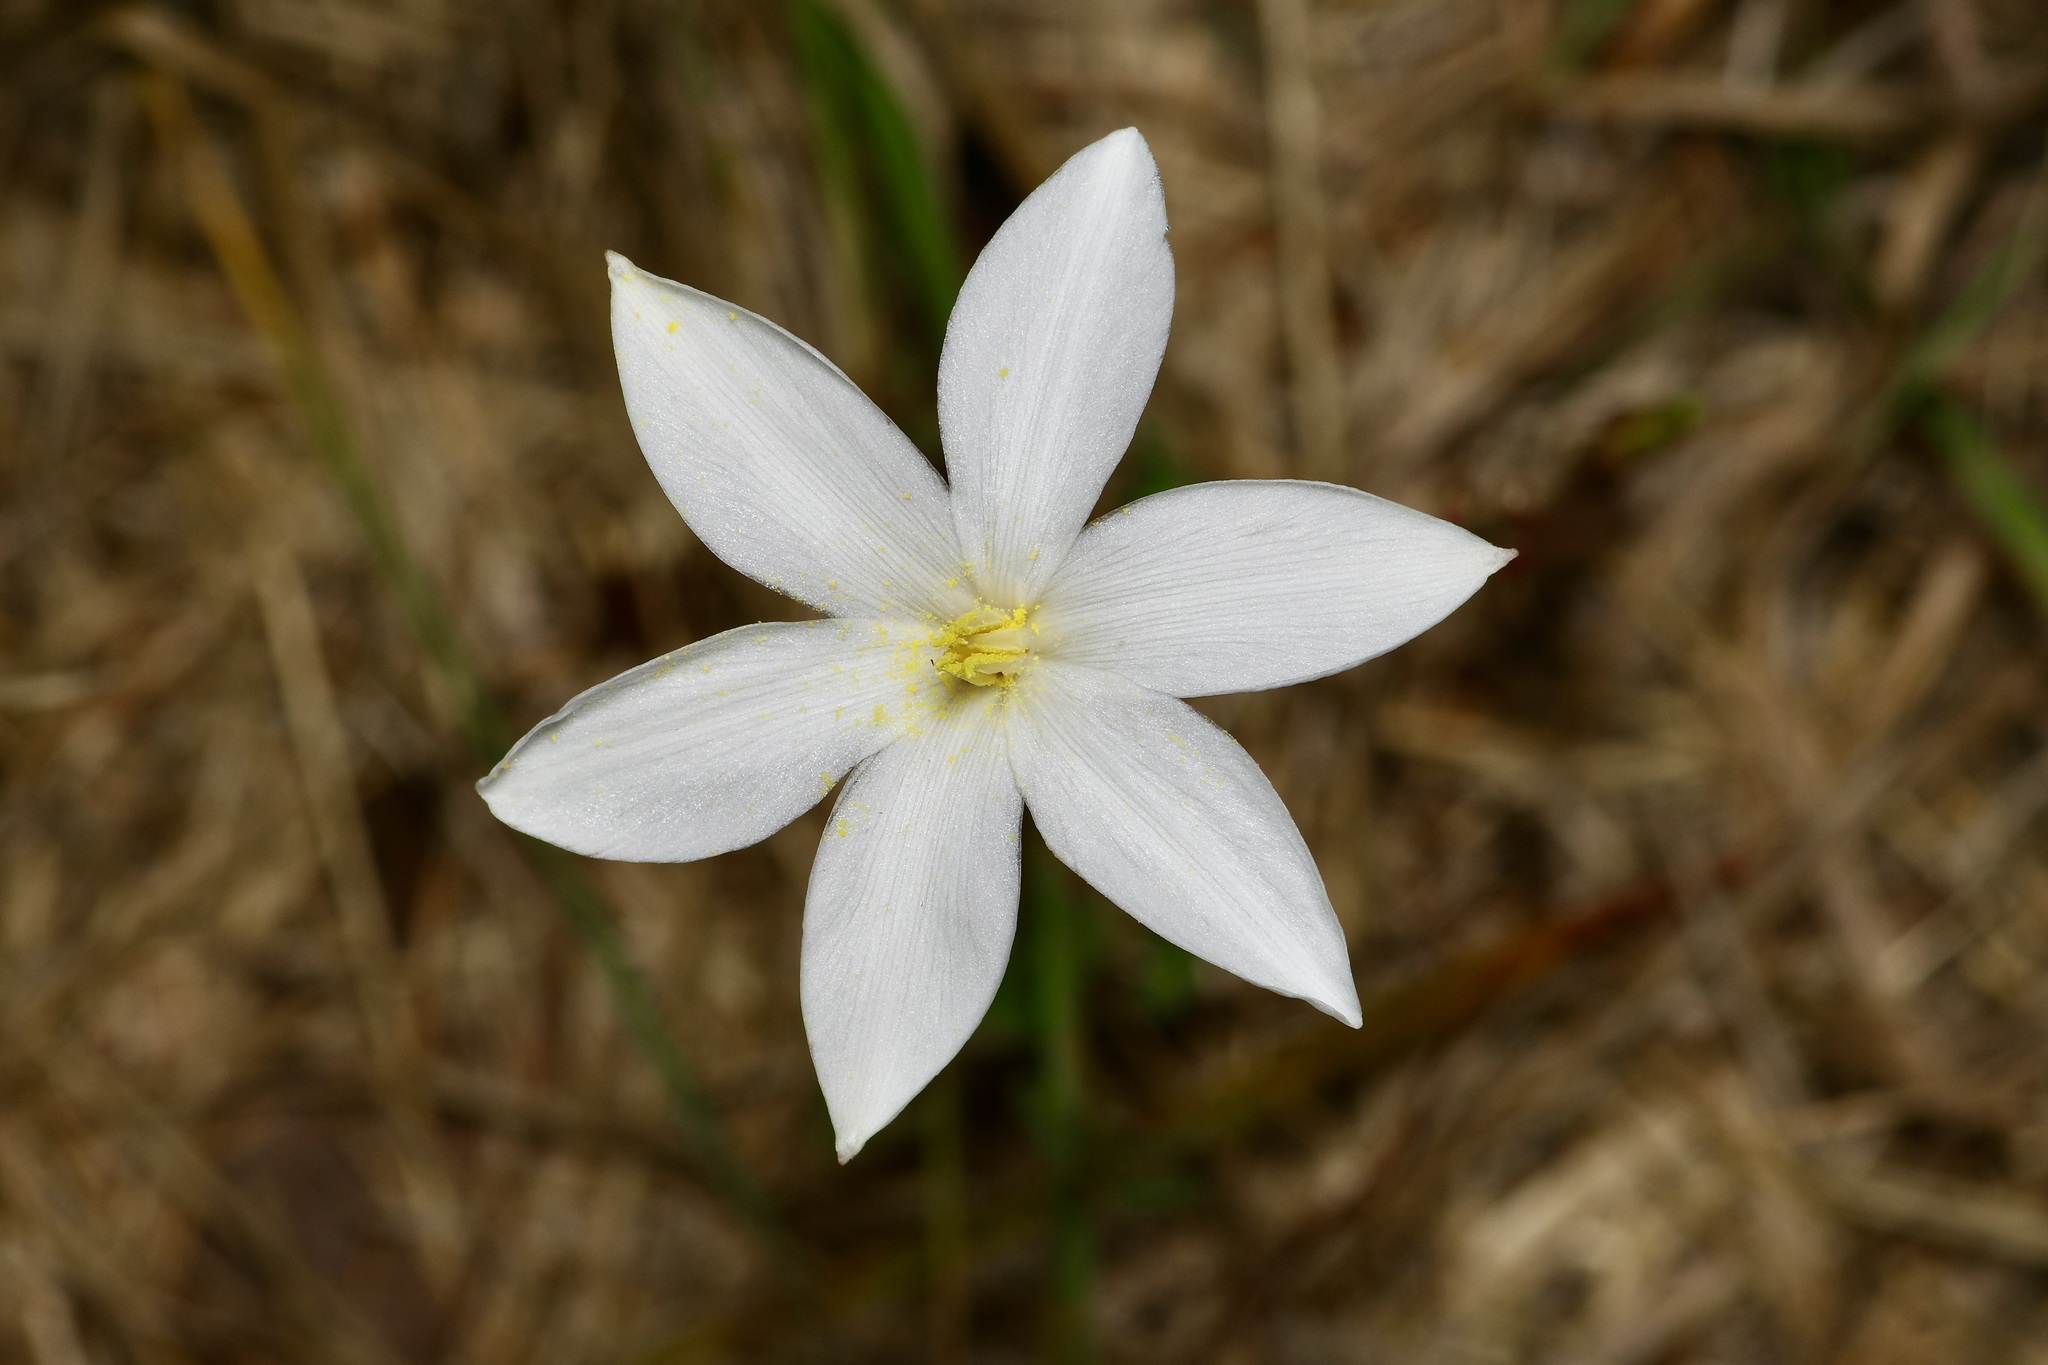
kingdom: Plantae
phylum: Tracheophyta
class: Liliopsida
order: Asparagales
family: Amaryllidaceae
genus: Zephyranthes
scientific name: Zephyranthes chlorosolen
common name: Evening rain-lily
